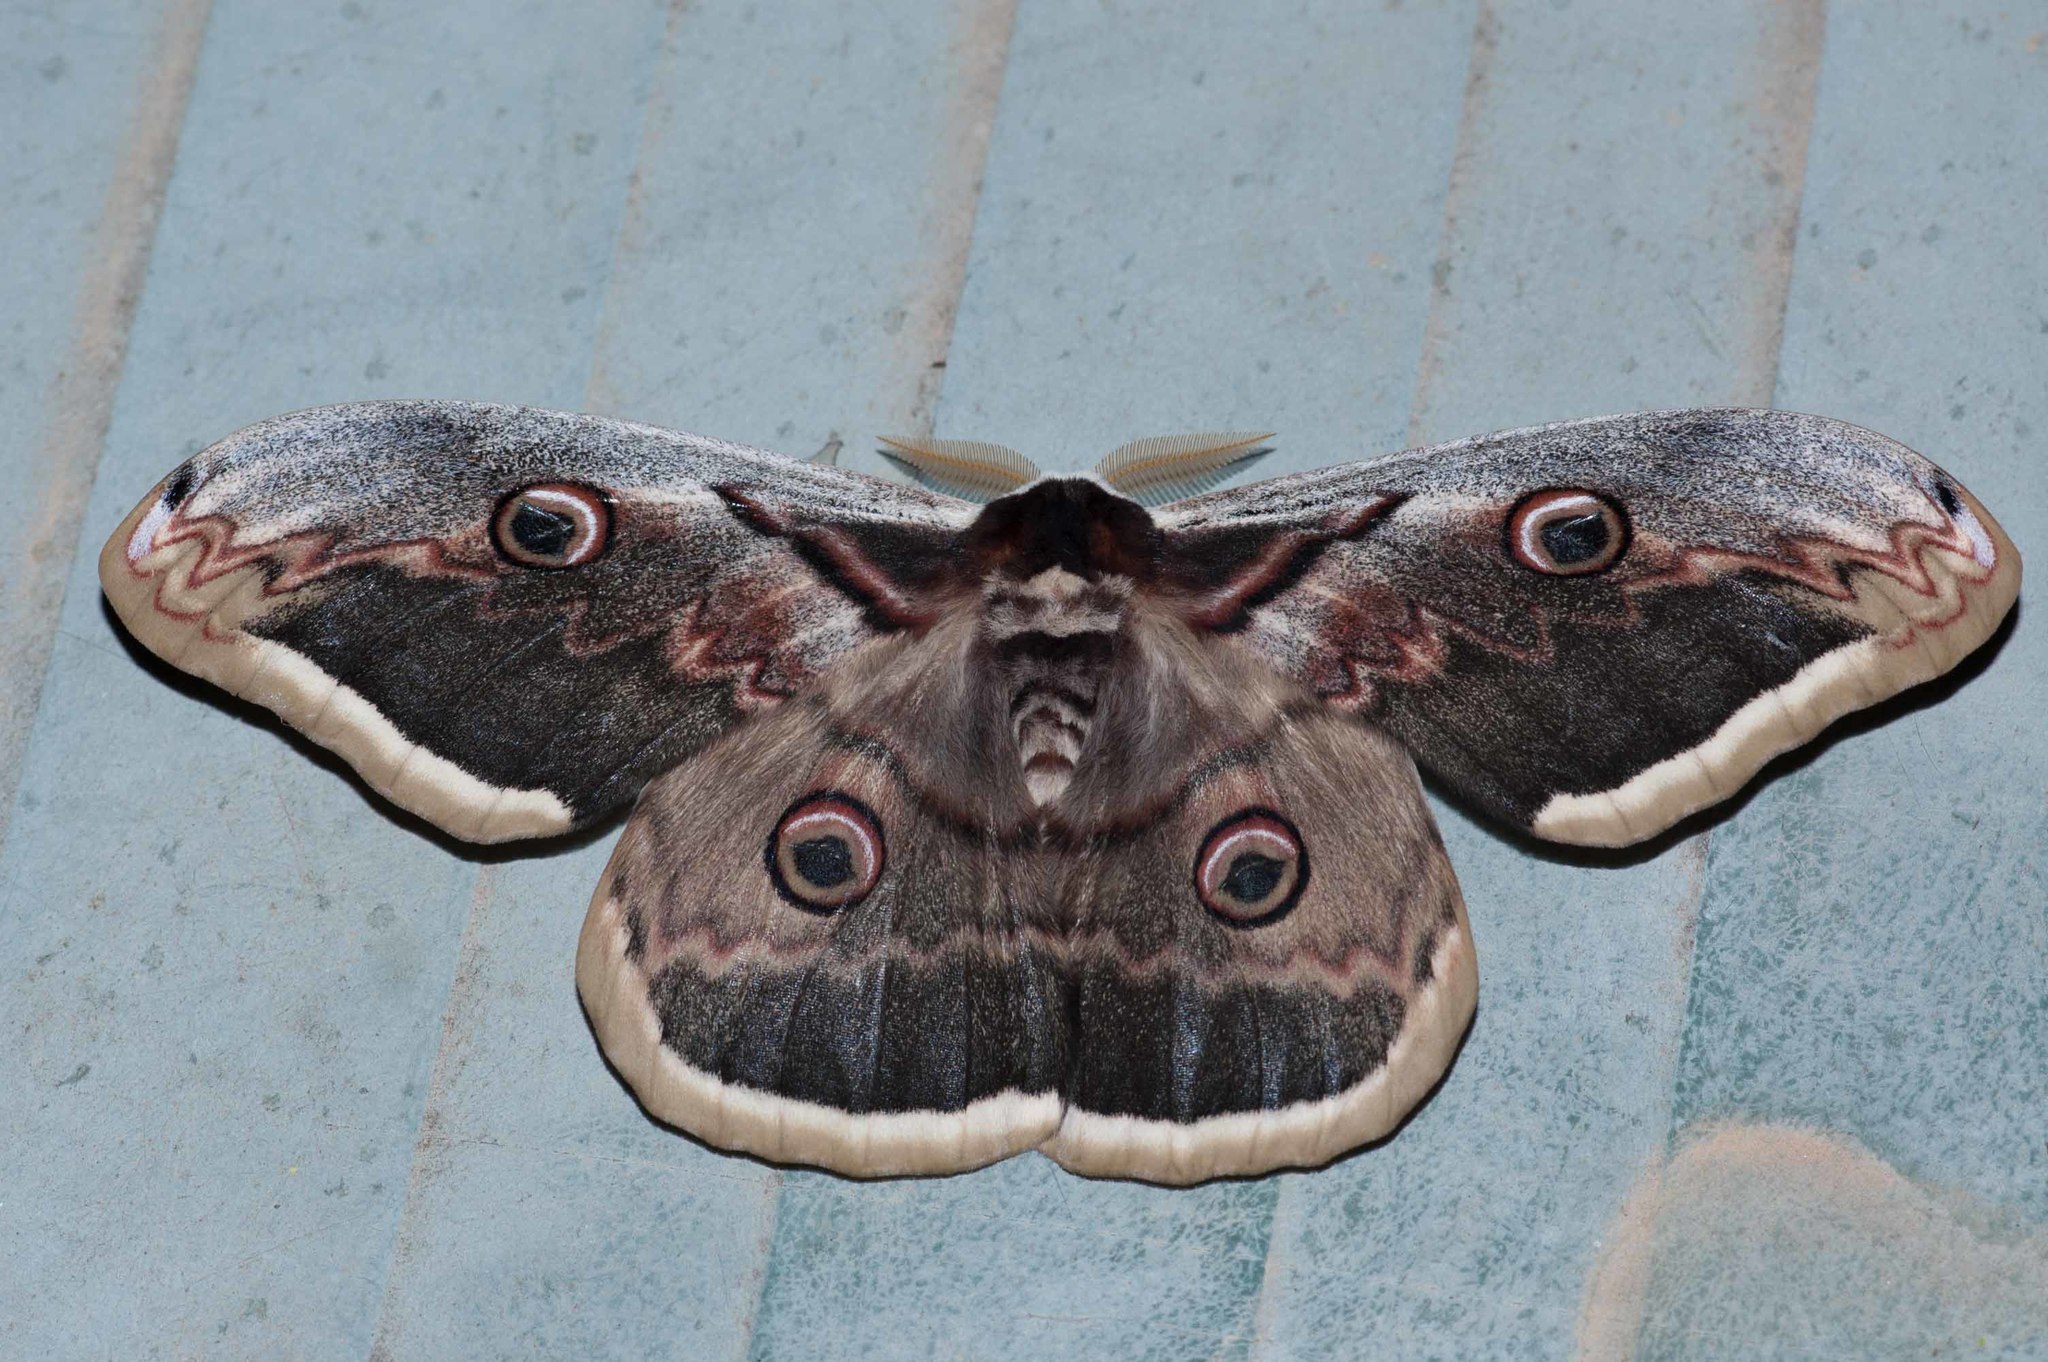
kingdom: Animalia
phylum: Arthropoda
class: Insecta
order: Lepidoptera
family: Saturniidae
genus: Saturnia
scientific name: Saturnia pyri
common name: Great peacock moth
